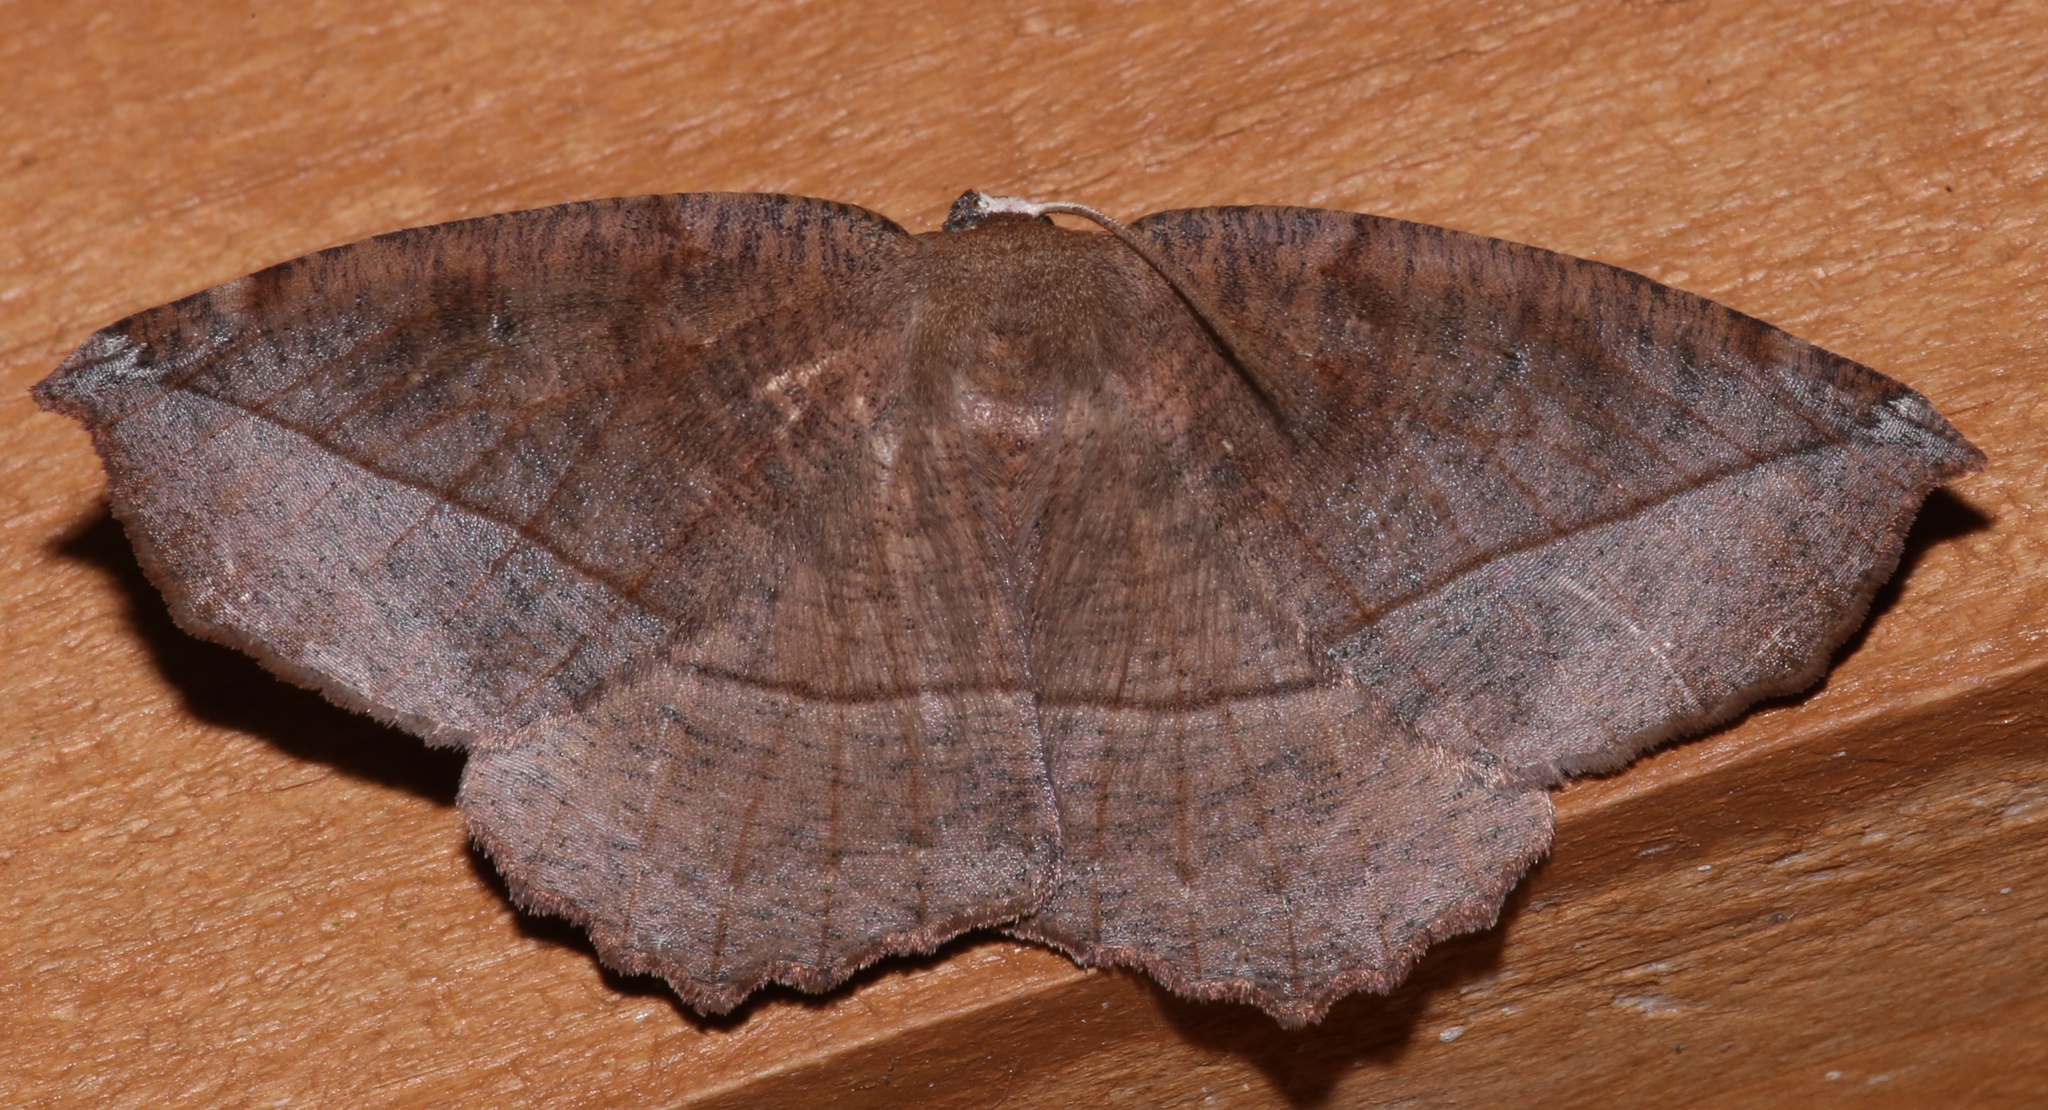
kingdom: Animalia
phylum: Arthropoda
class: Insecta
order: Lepidoptera
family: Geometridae
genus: Eutrapela
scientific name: Eutrapela clemataria
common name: Curved-toothed geometer
